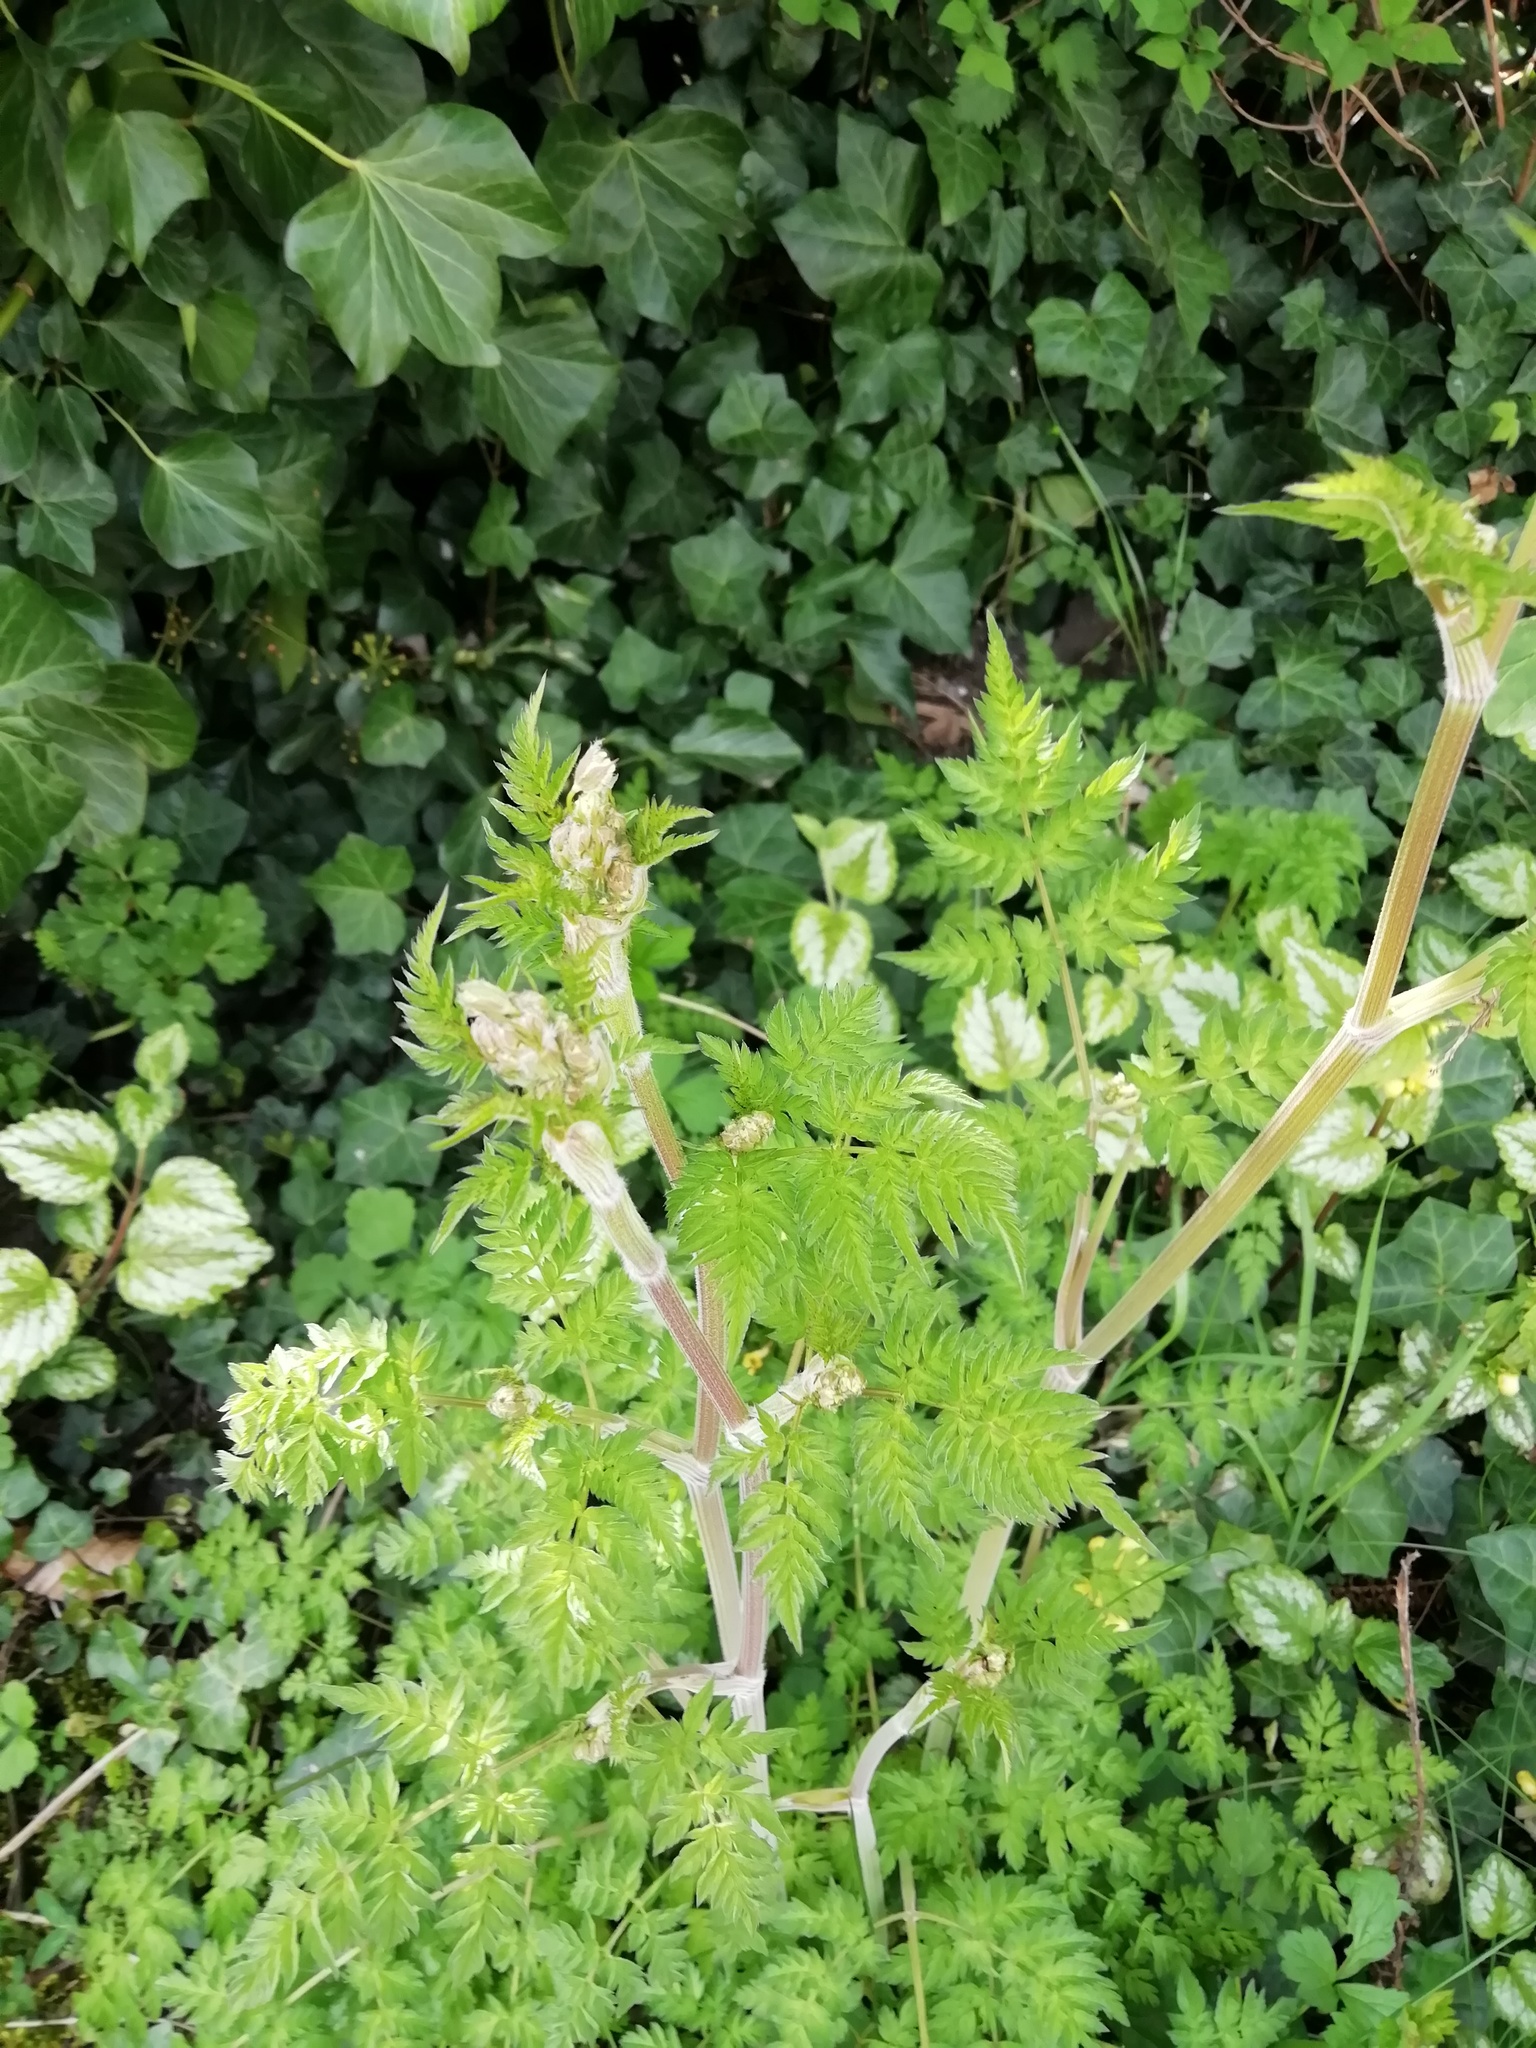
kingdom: Plantae
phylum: Tracheophyta
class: Magnoliopsida
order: Apiales
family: Apiaceae
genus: Anthriscus
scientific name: Anthriscus sylvestris
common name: Cow parsley
